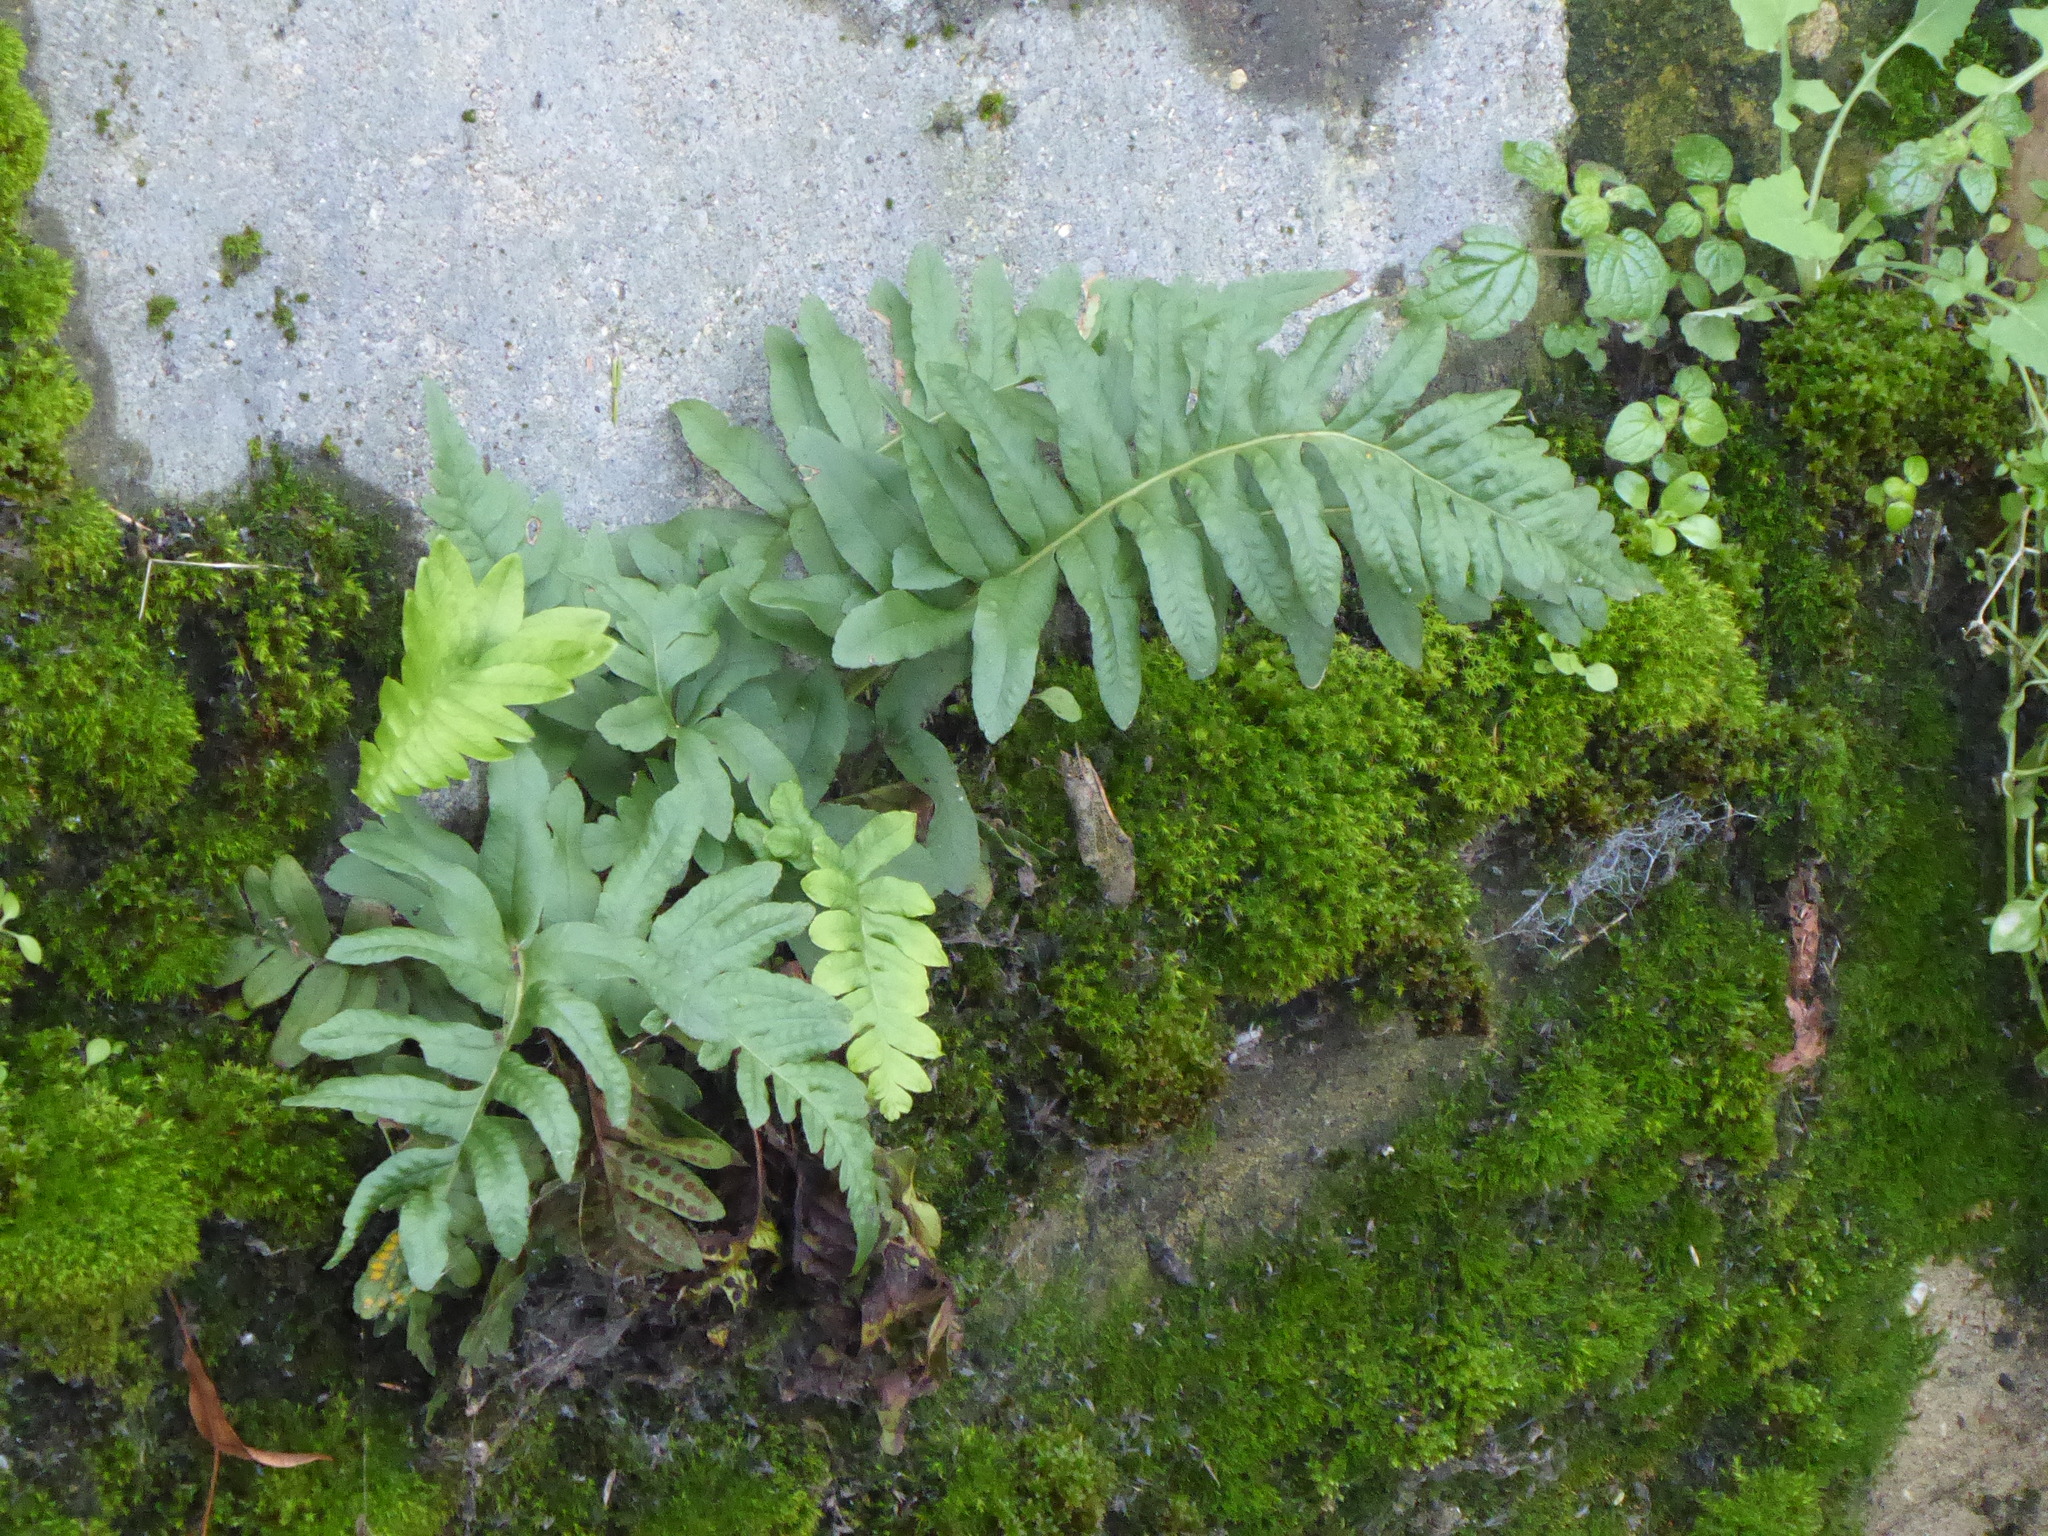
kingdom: Plantae
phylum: Tracheophyta
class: Polypodiopsida
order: Polypodiales
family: Polypodiaceae
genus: Polypodium
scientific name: Polypodium
